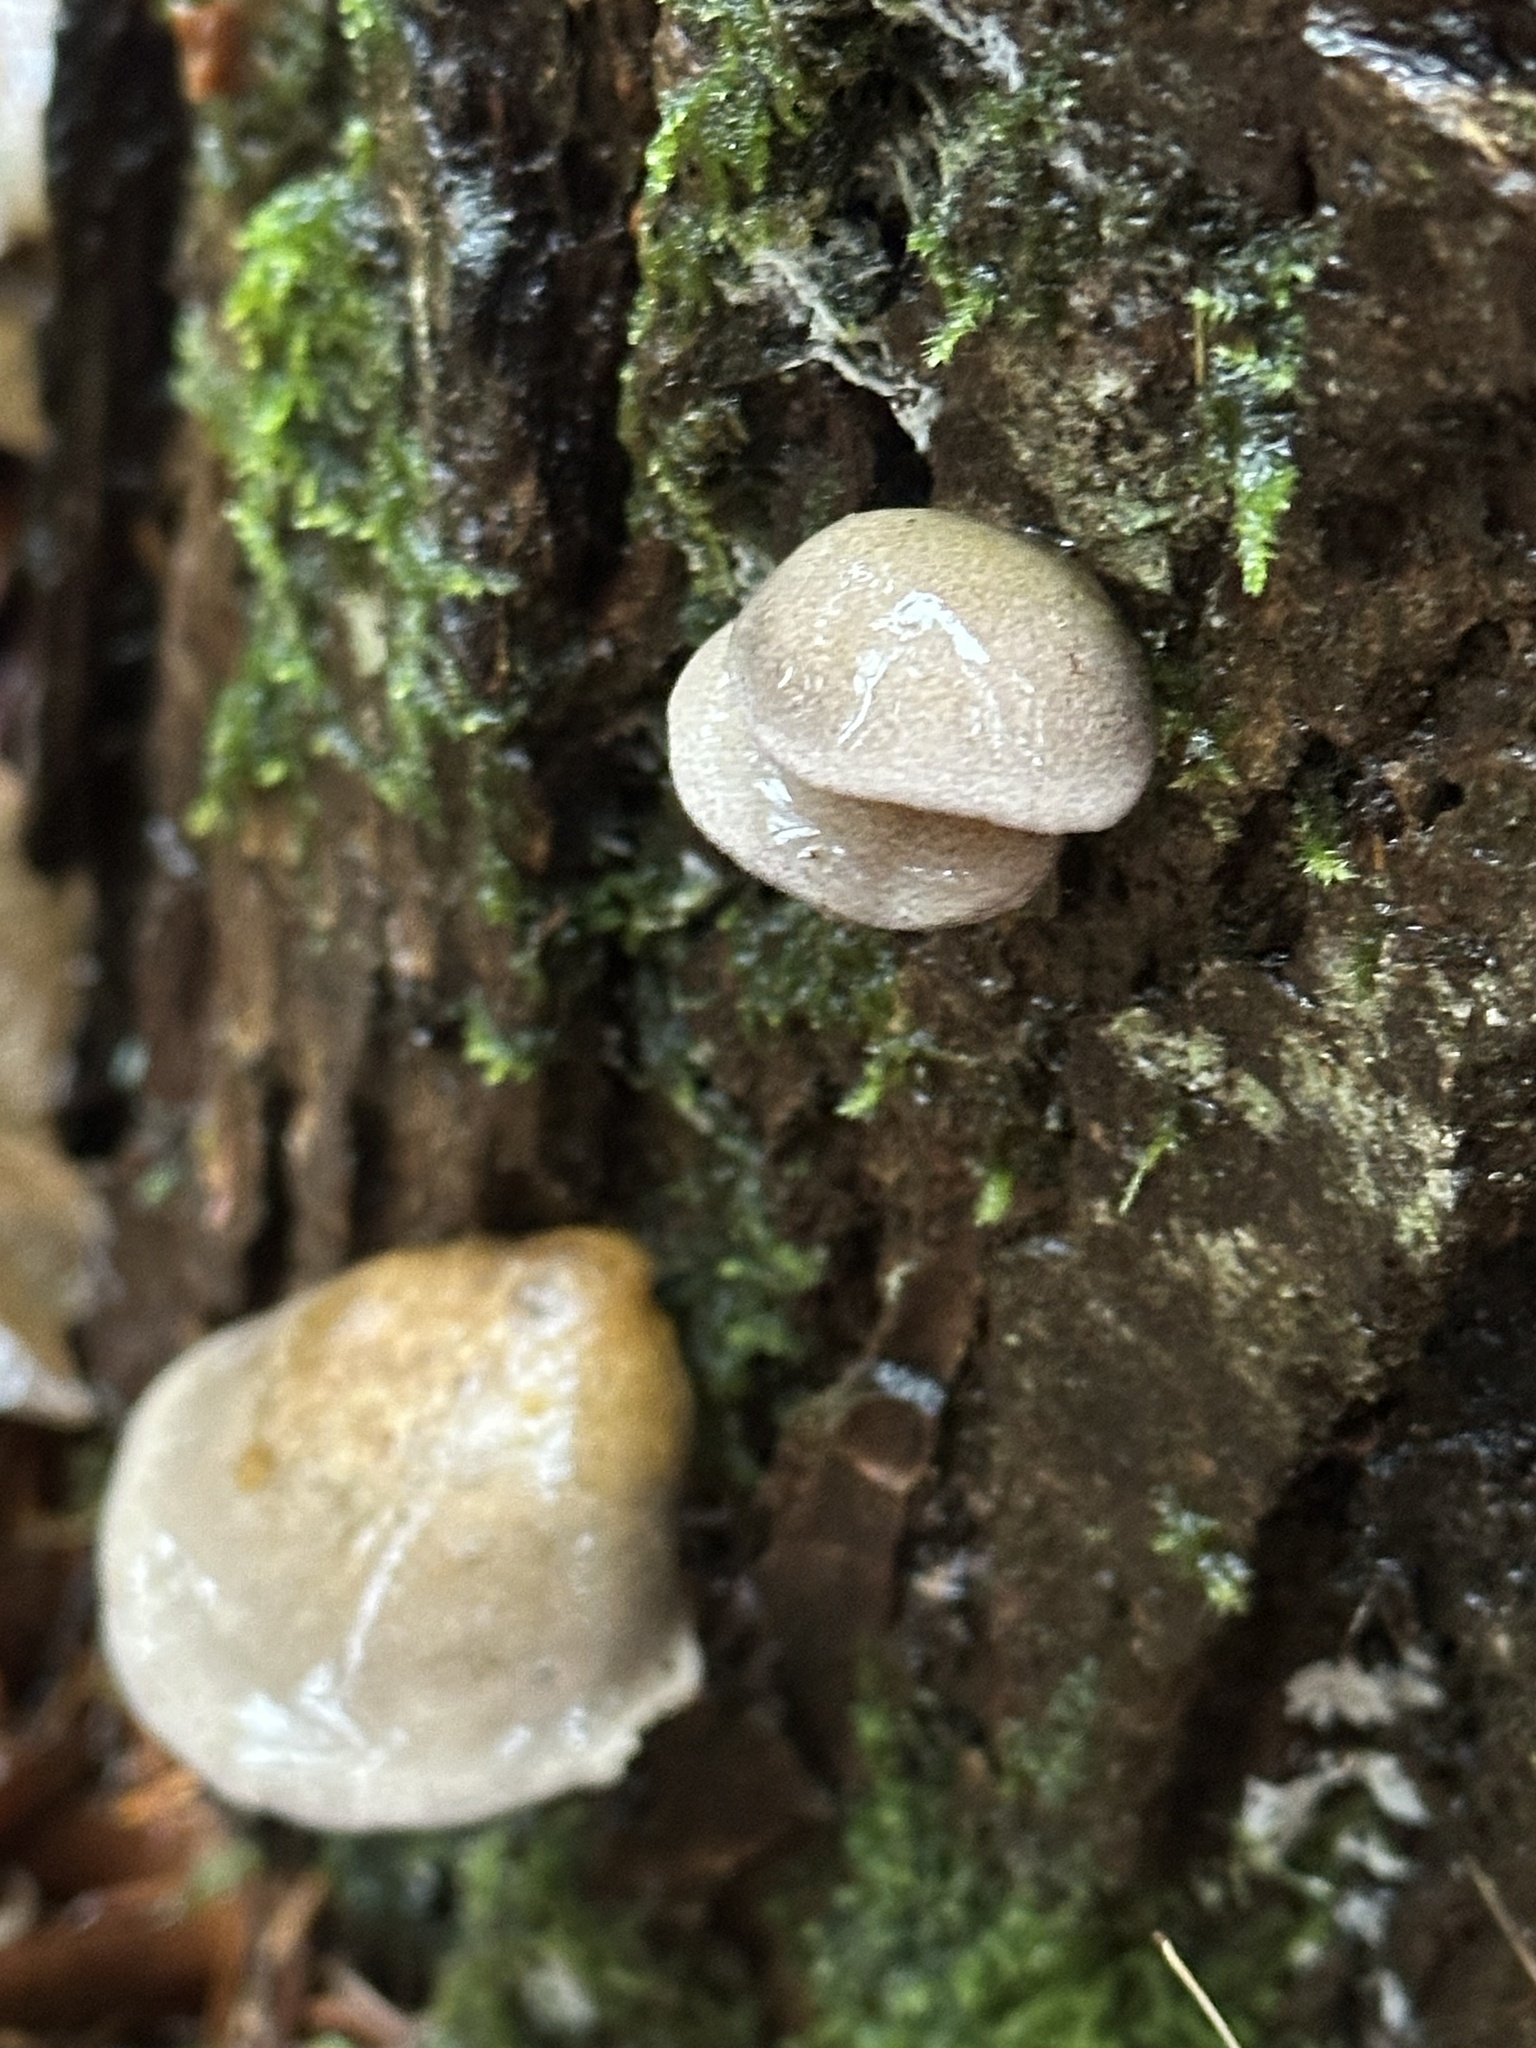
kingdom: Fungi
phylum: Basidiomycota
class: Agaricomycetes
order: Agaricales
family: Sarcomyxaceae
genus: Sarcomyxa
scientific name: Sarcomyxa serotina
